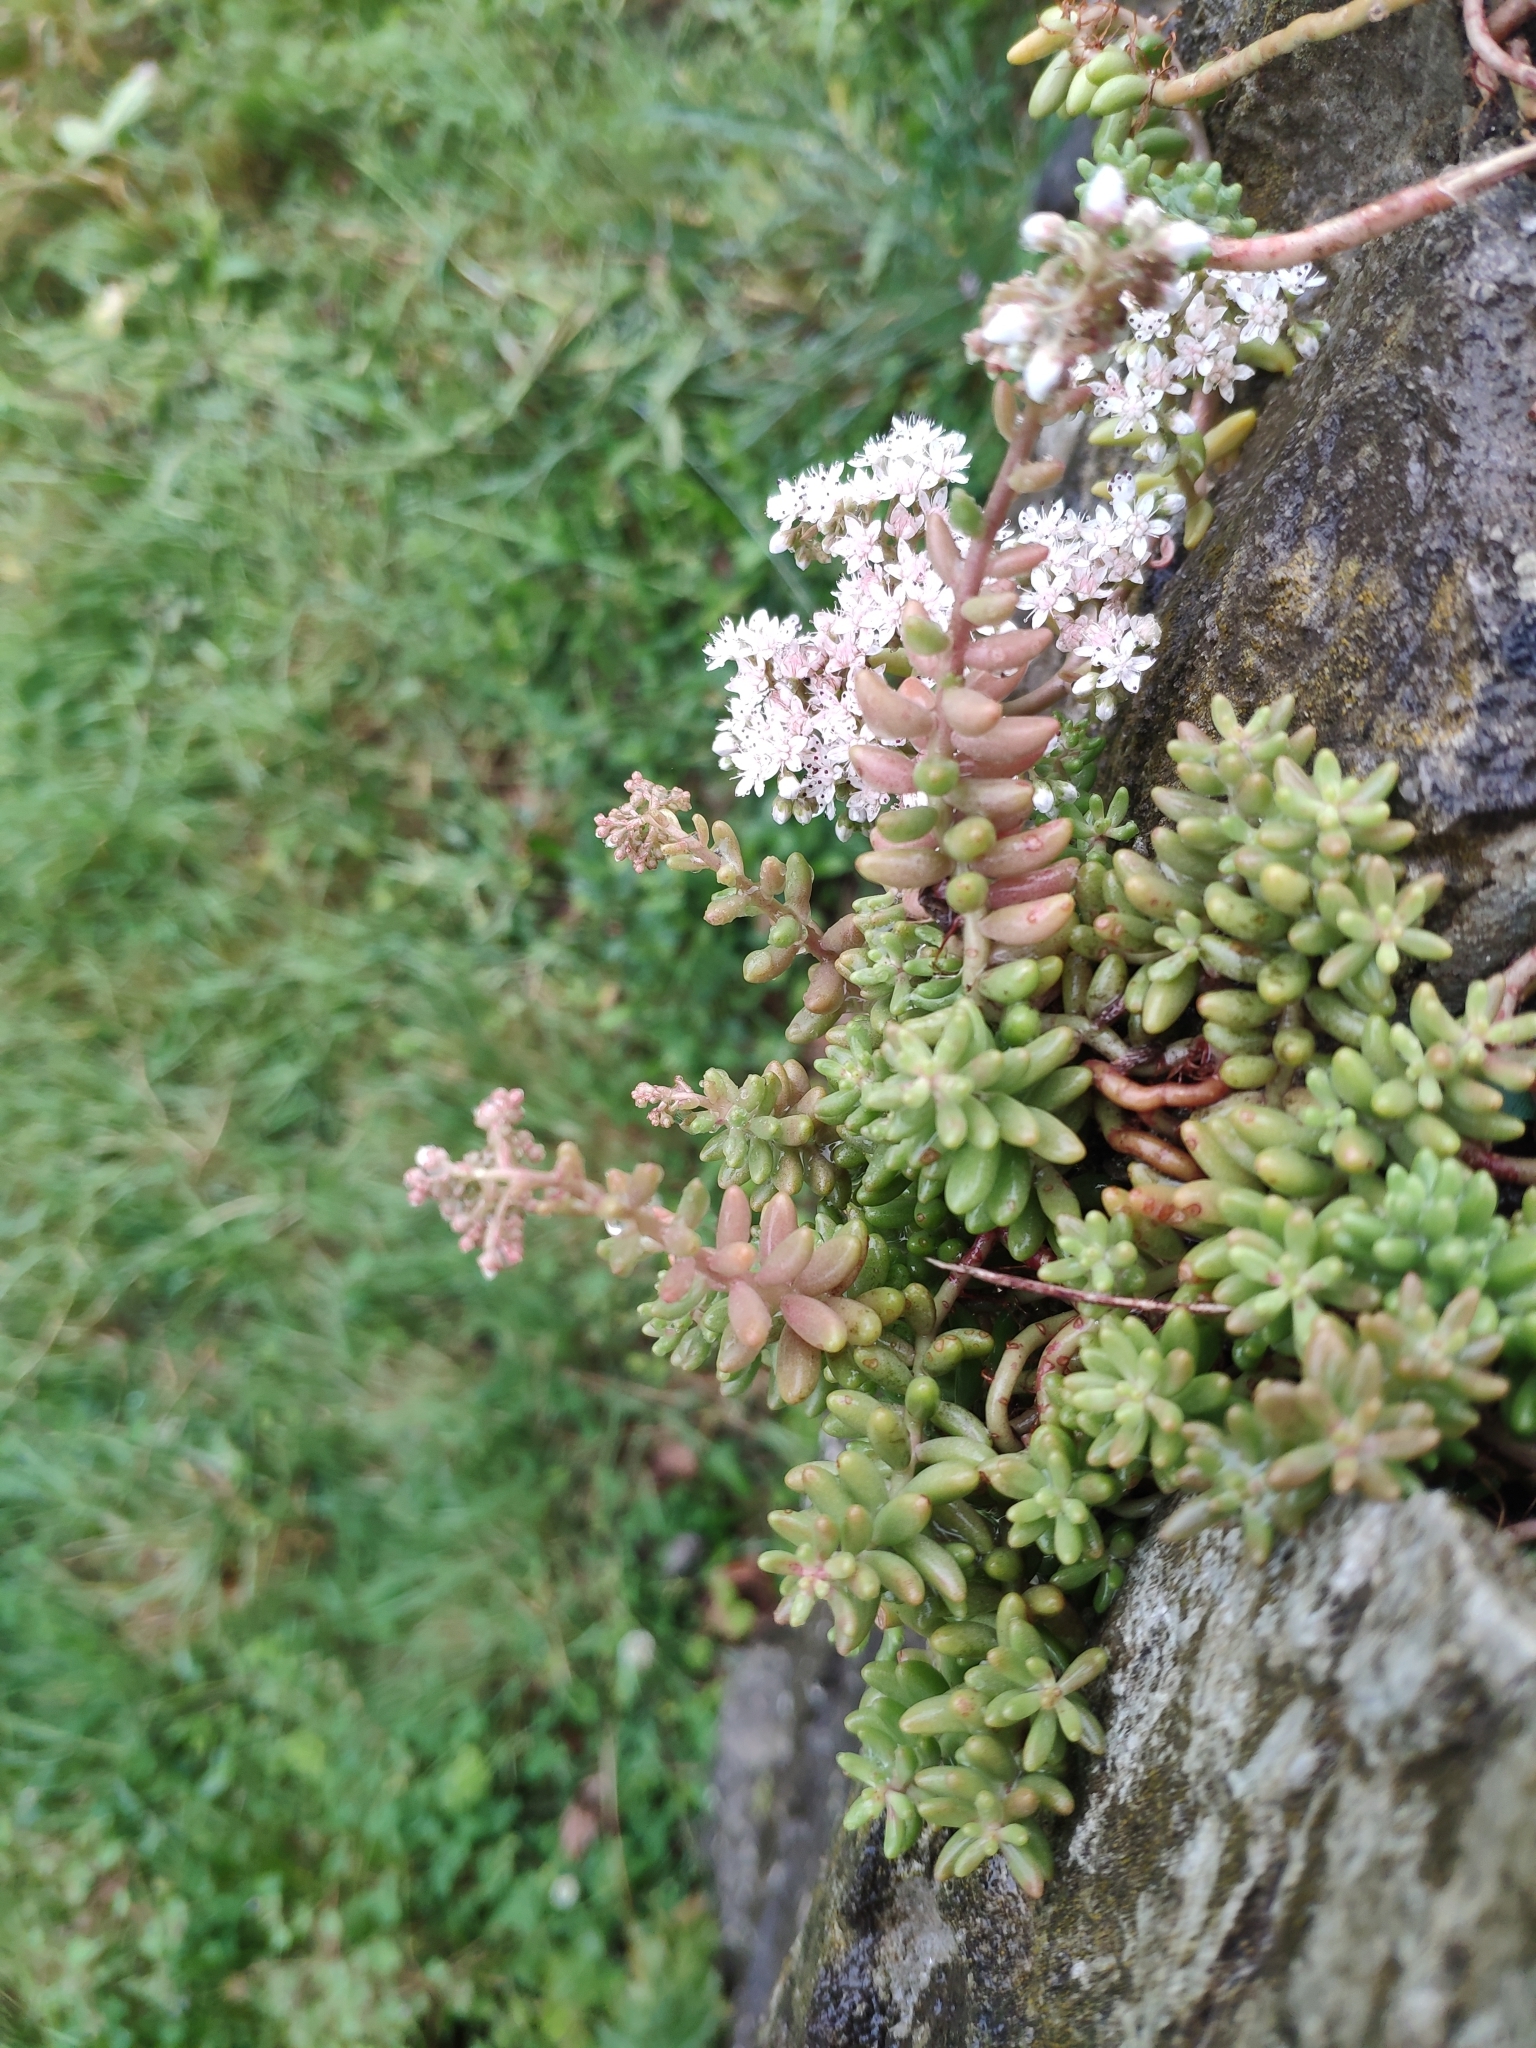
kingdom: Plantae
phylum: Tracheophyta
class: Magnoliopsida
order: Saxifragales
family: Crassulaceae
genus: Sedum
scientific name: Sedum album
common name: White stonecrop
